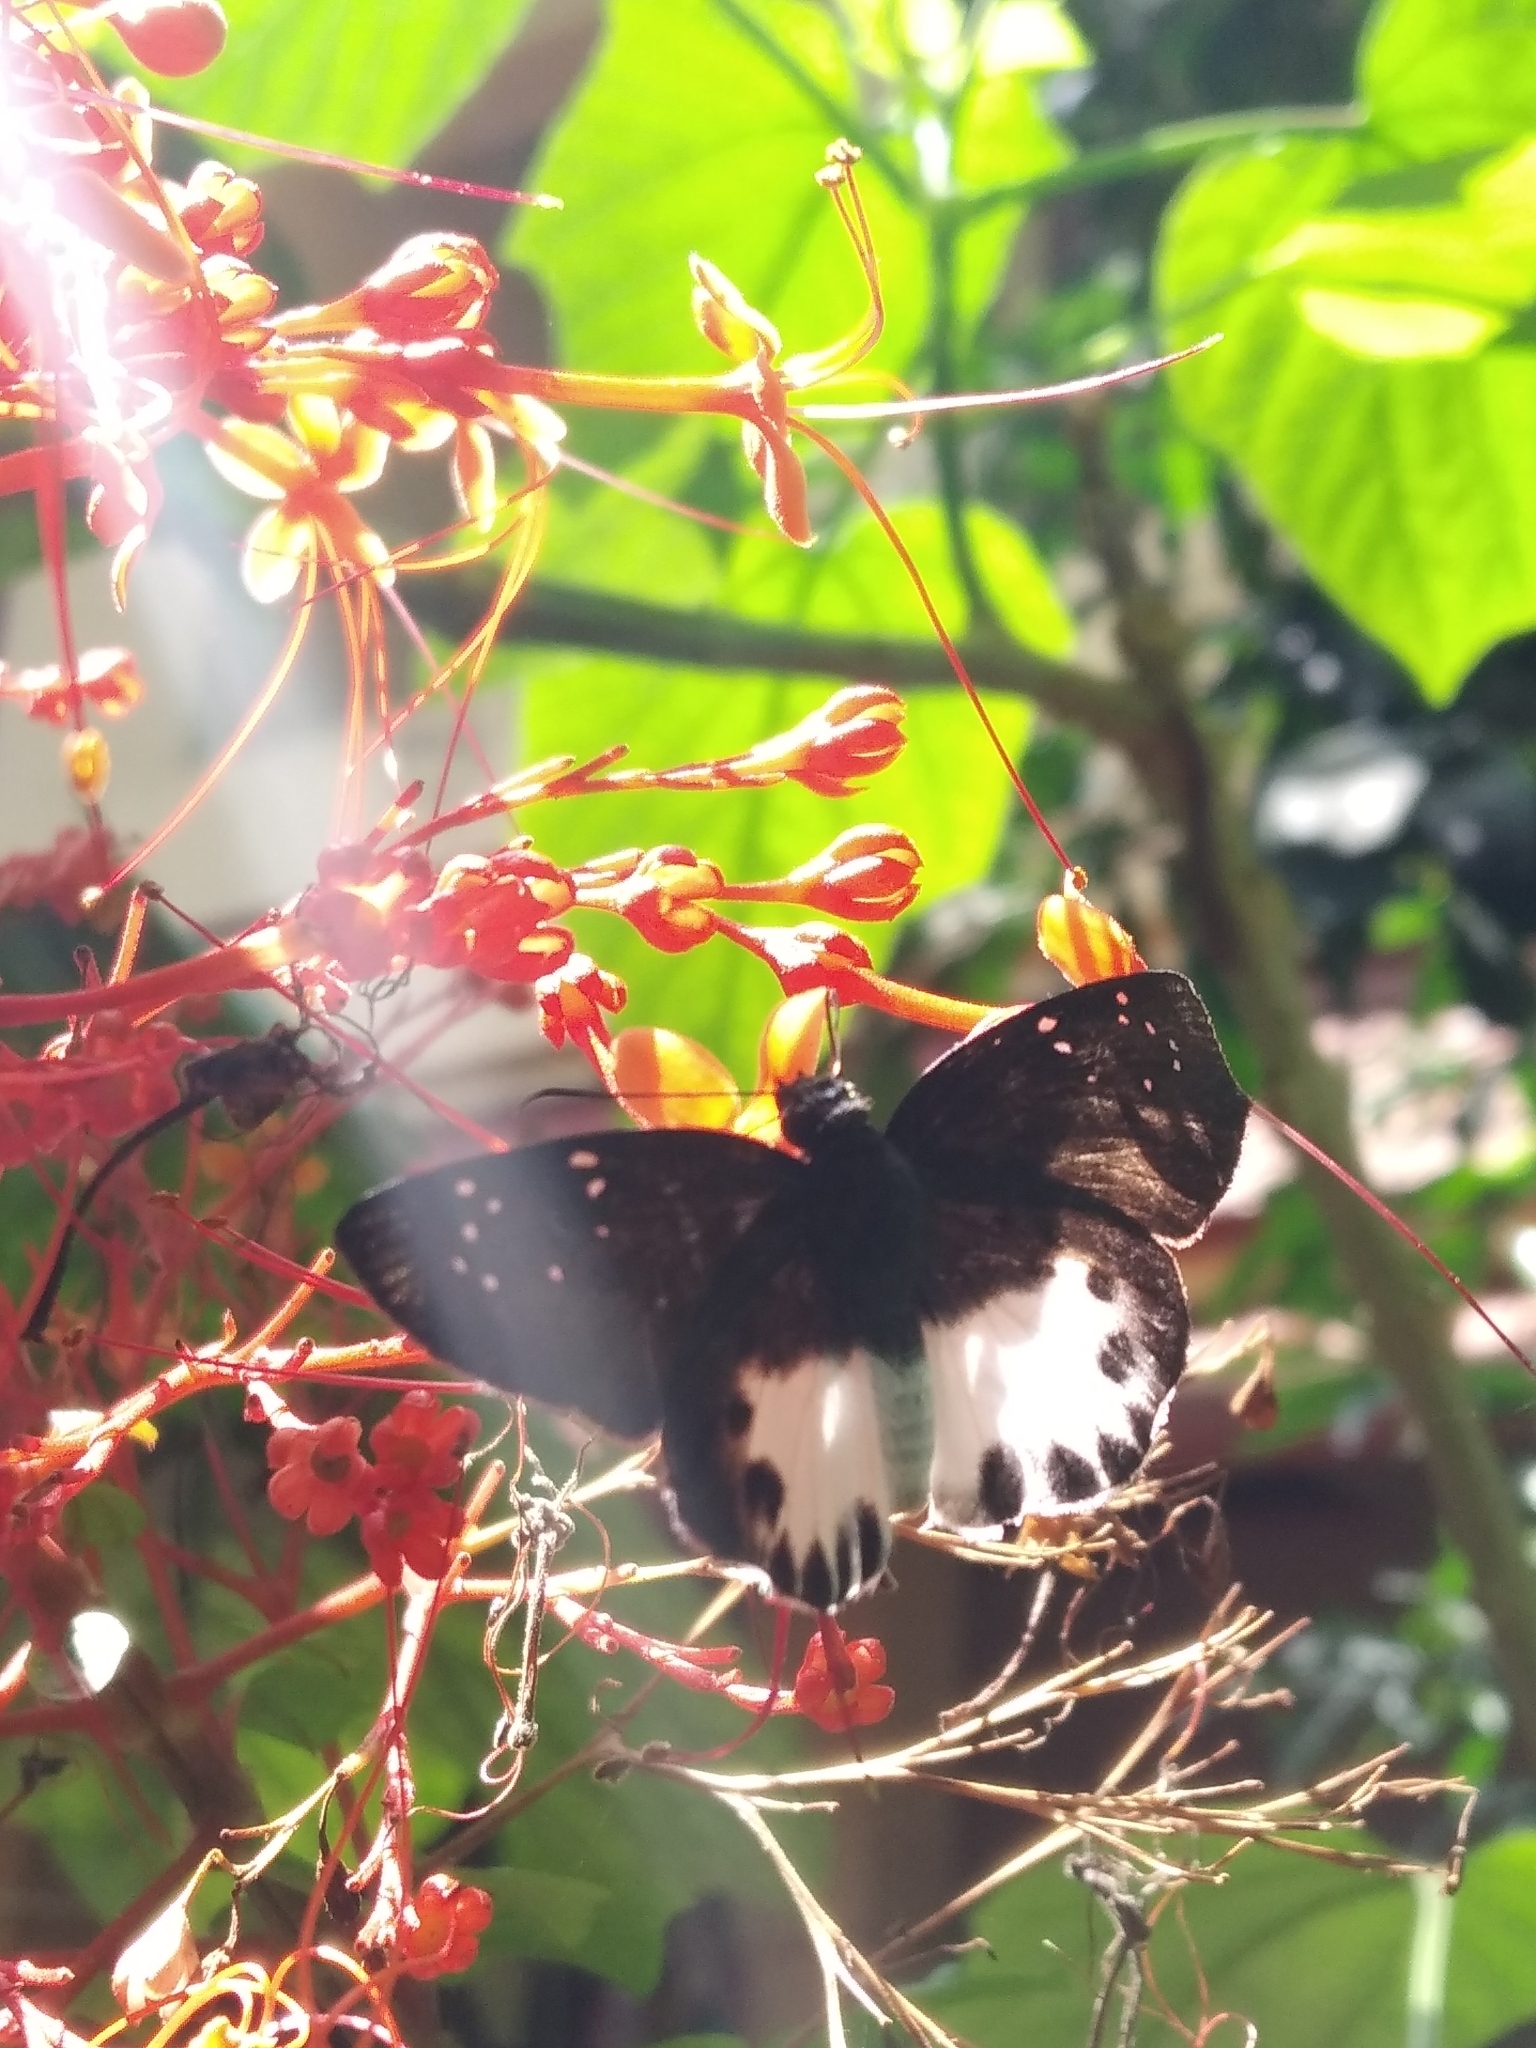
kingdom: Animalia
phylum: Arthropoda
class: Insecta
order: Lepidoptera
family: Hesperiidae
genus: Tagiades
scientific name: Tagiades litigiosa
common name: Water snow flat
